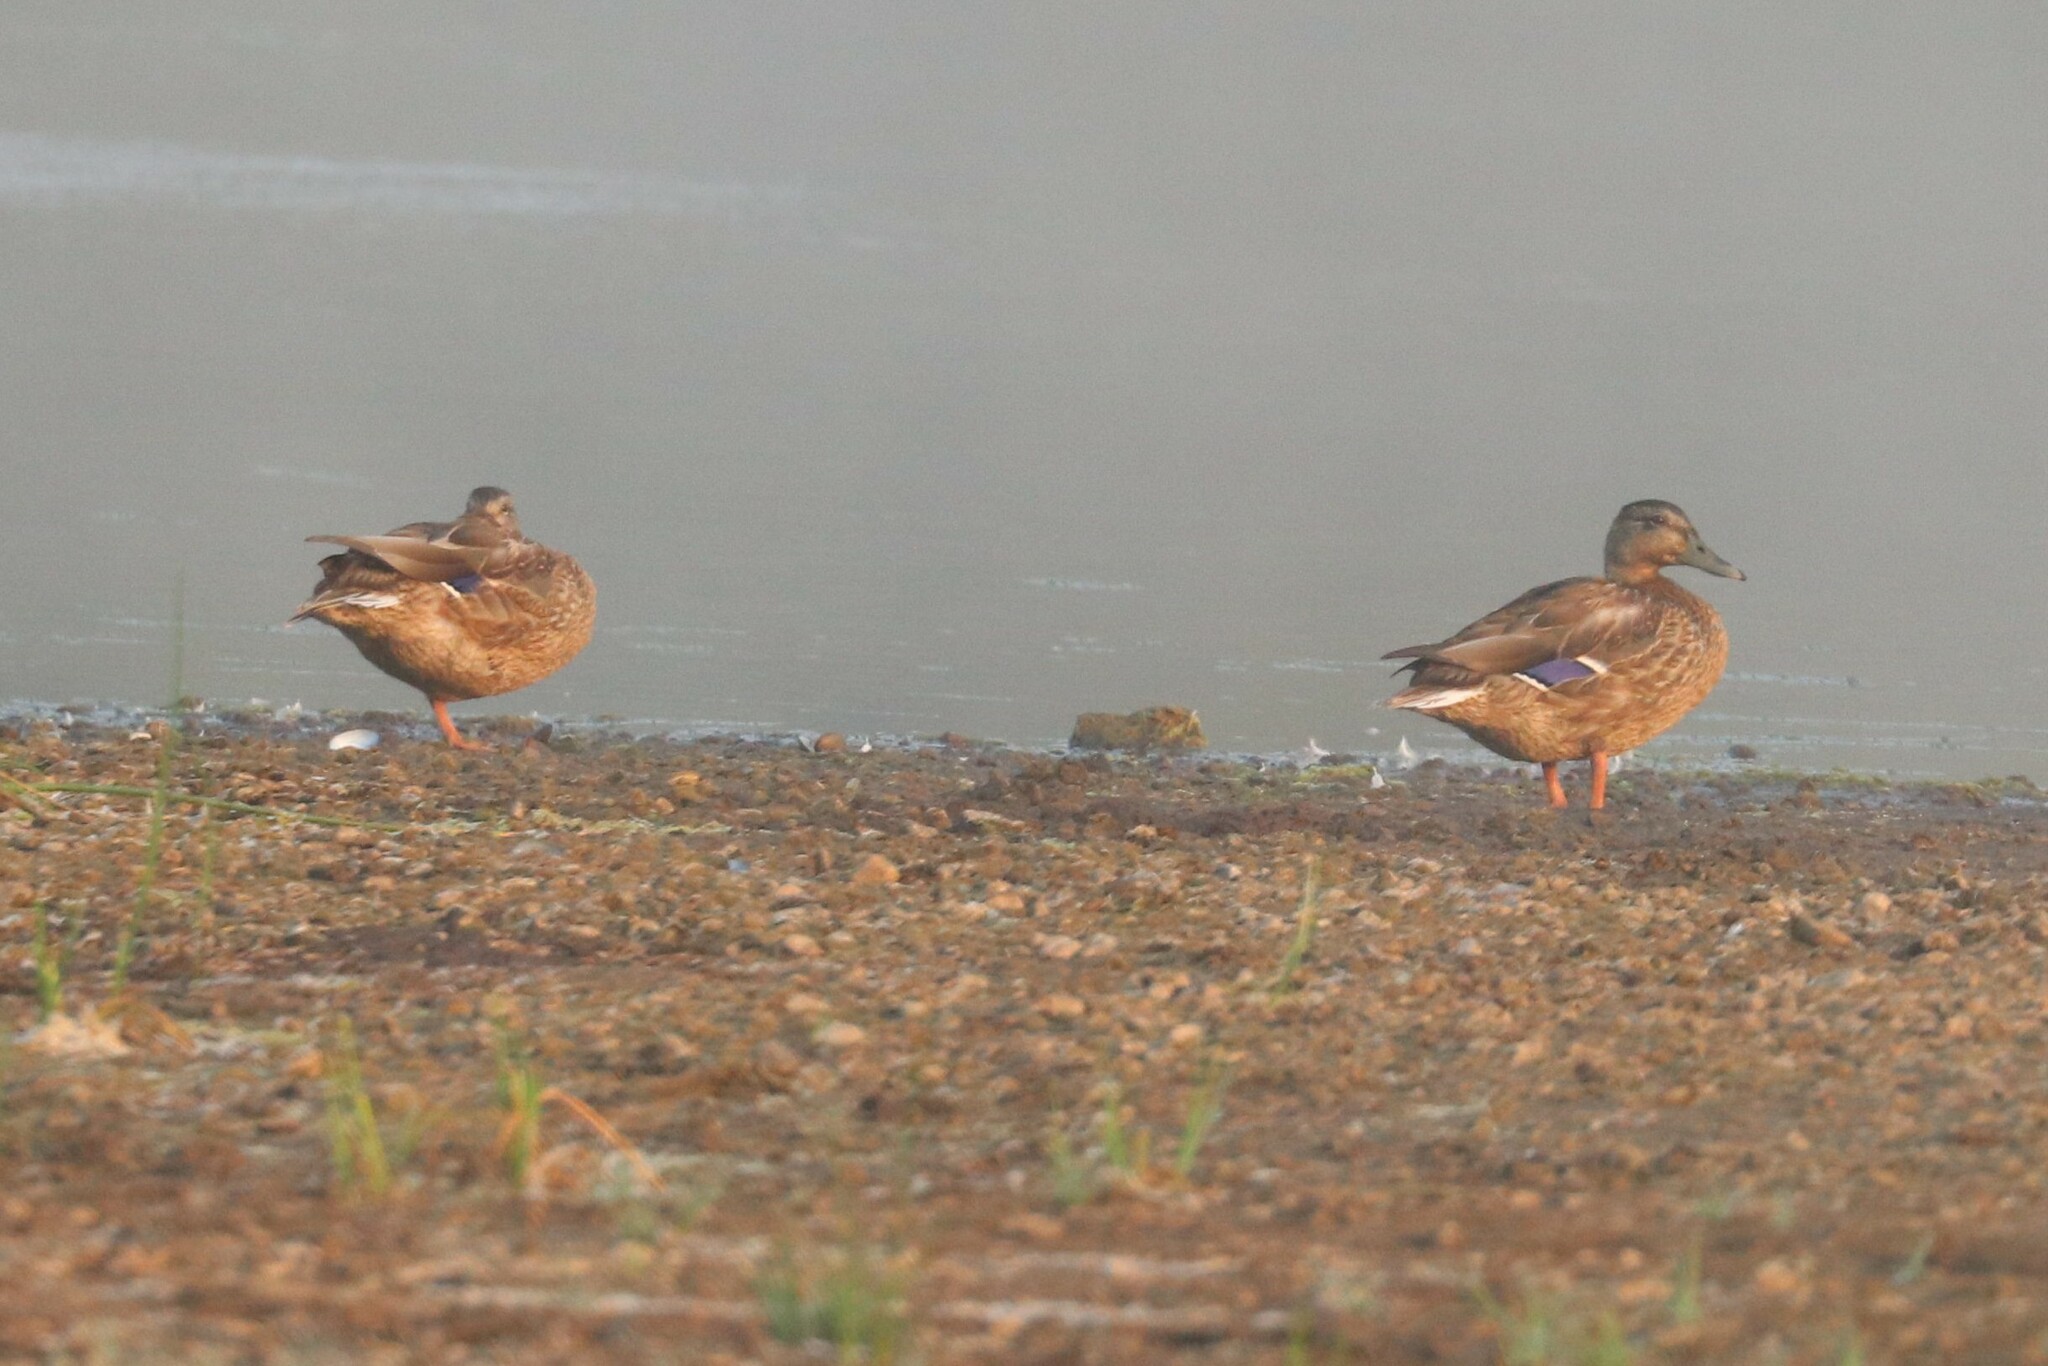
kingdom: Animalia
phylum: Chordata
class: Aves
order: Anseriformes
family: Anatidae
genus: Anas
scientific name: Anas platyrhynchos
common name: Mallard
